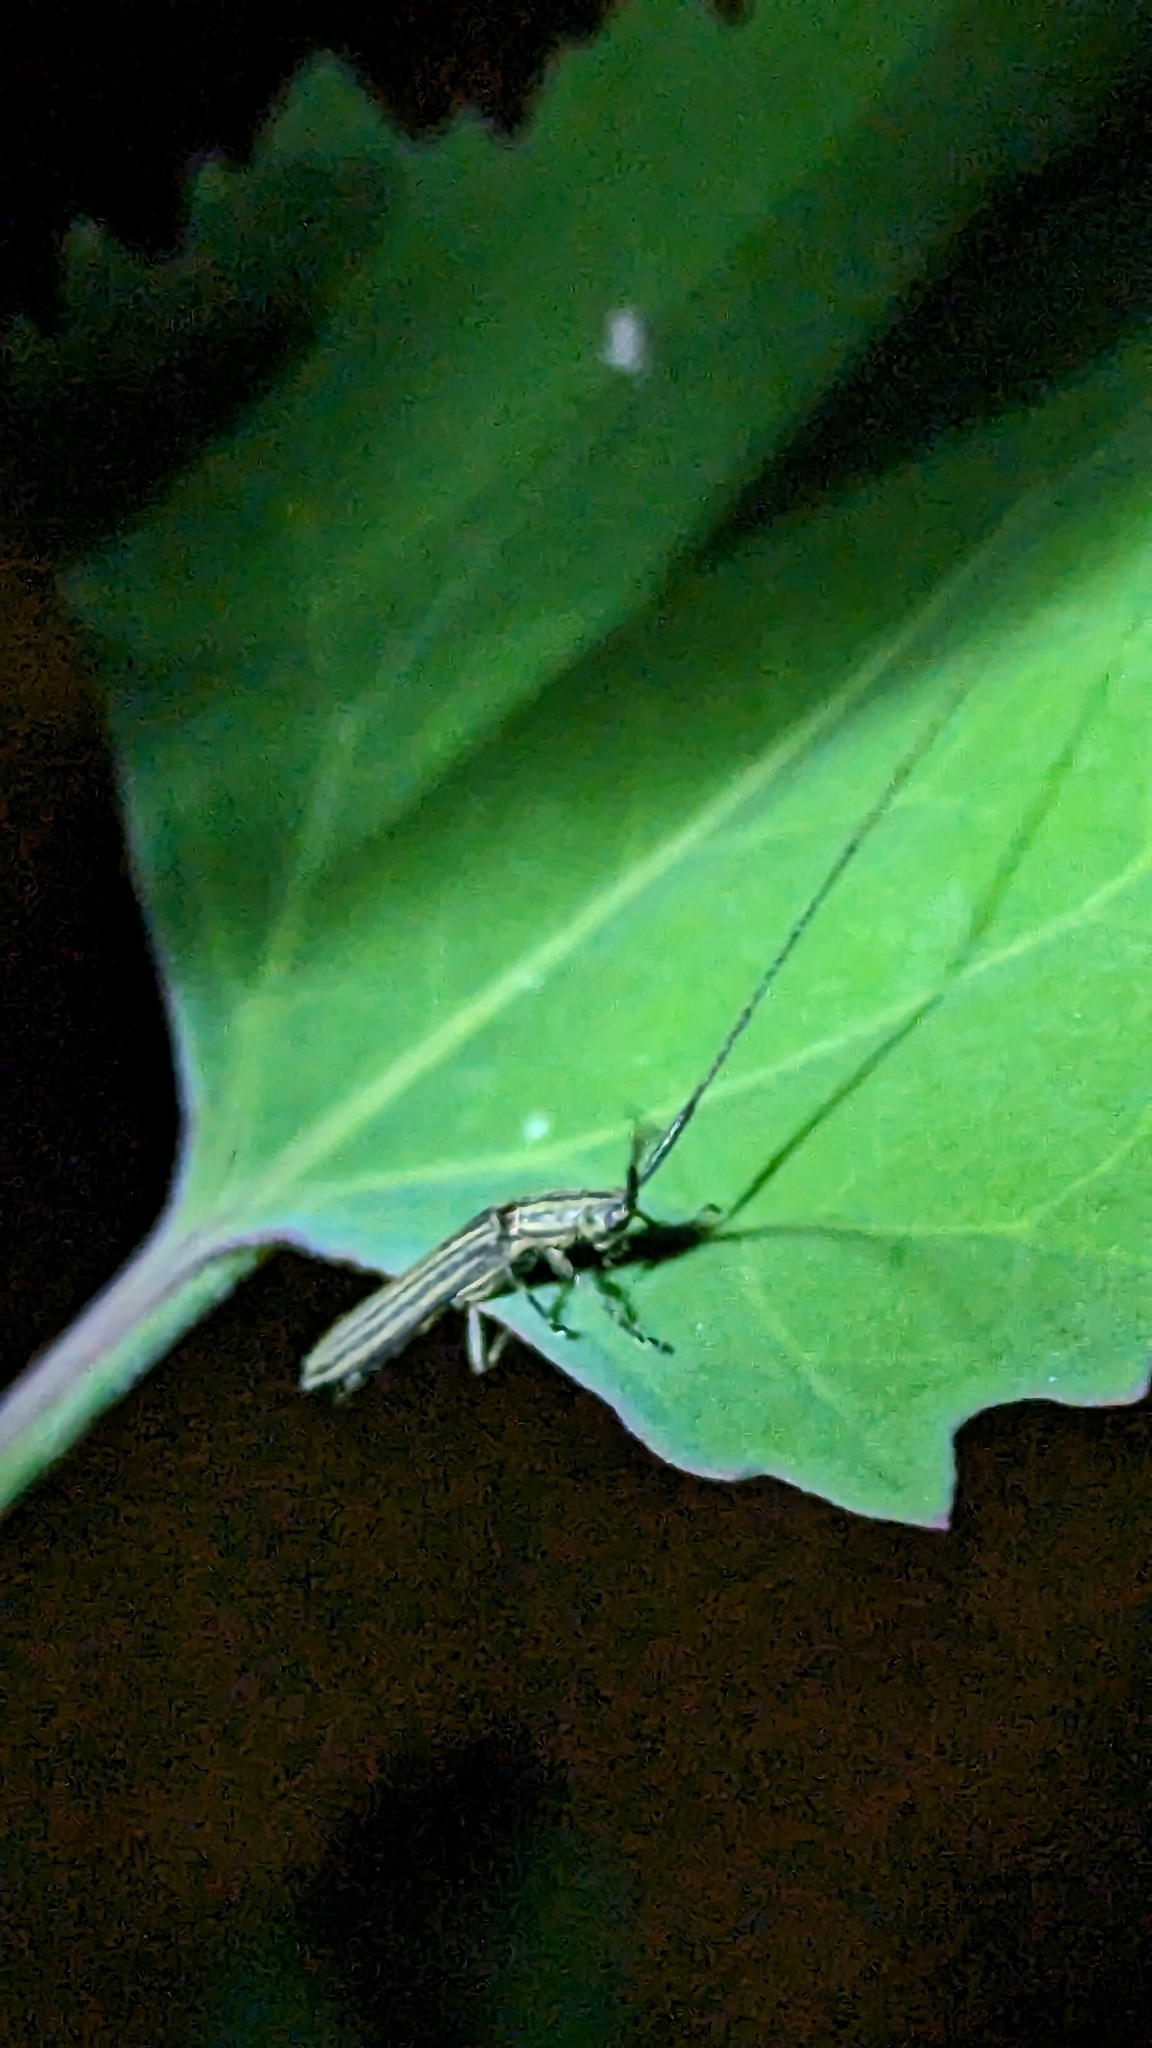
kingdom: Animalia
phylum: Arthropoda
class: Insecta
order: Coleoptera
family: Cerambycidae
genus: Hippopsis
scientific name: Hippopsis
